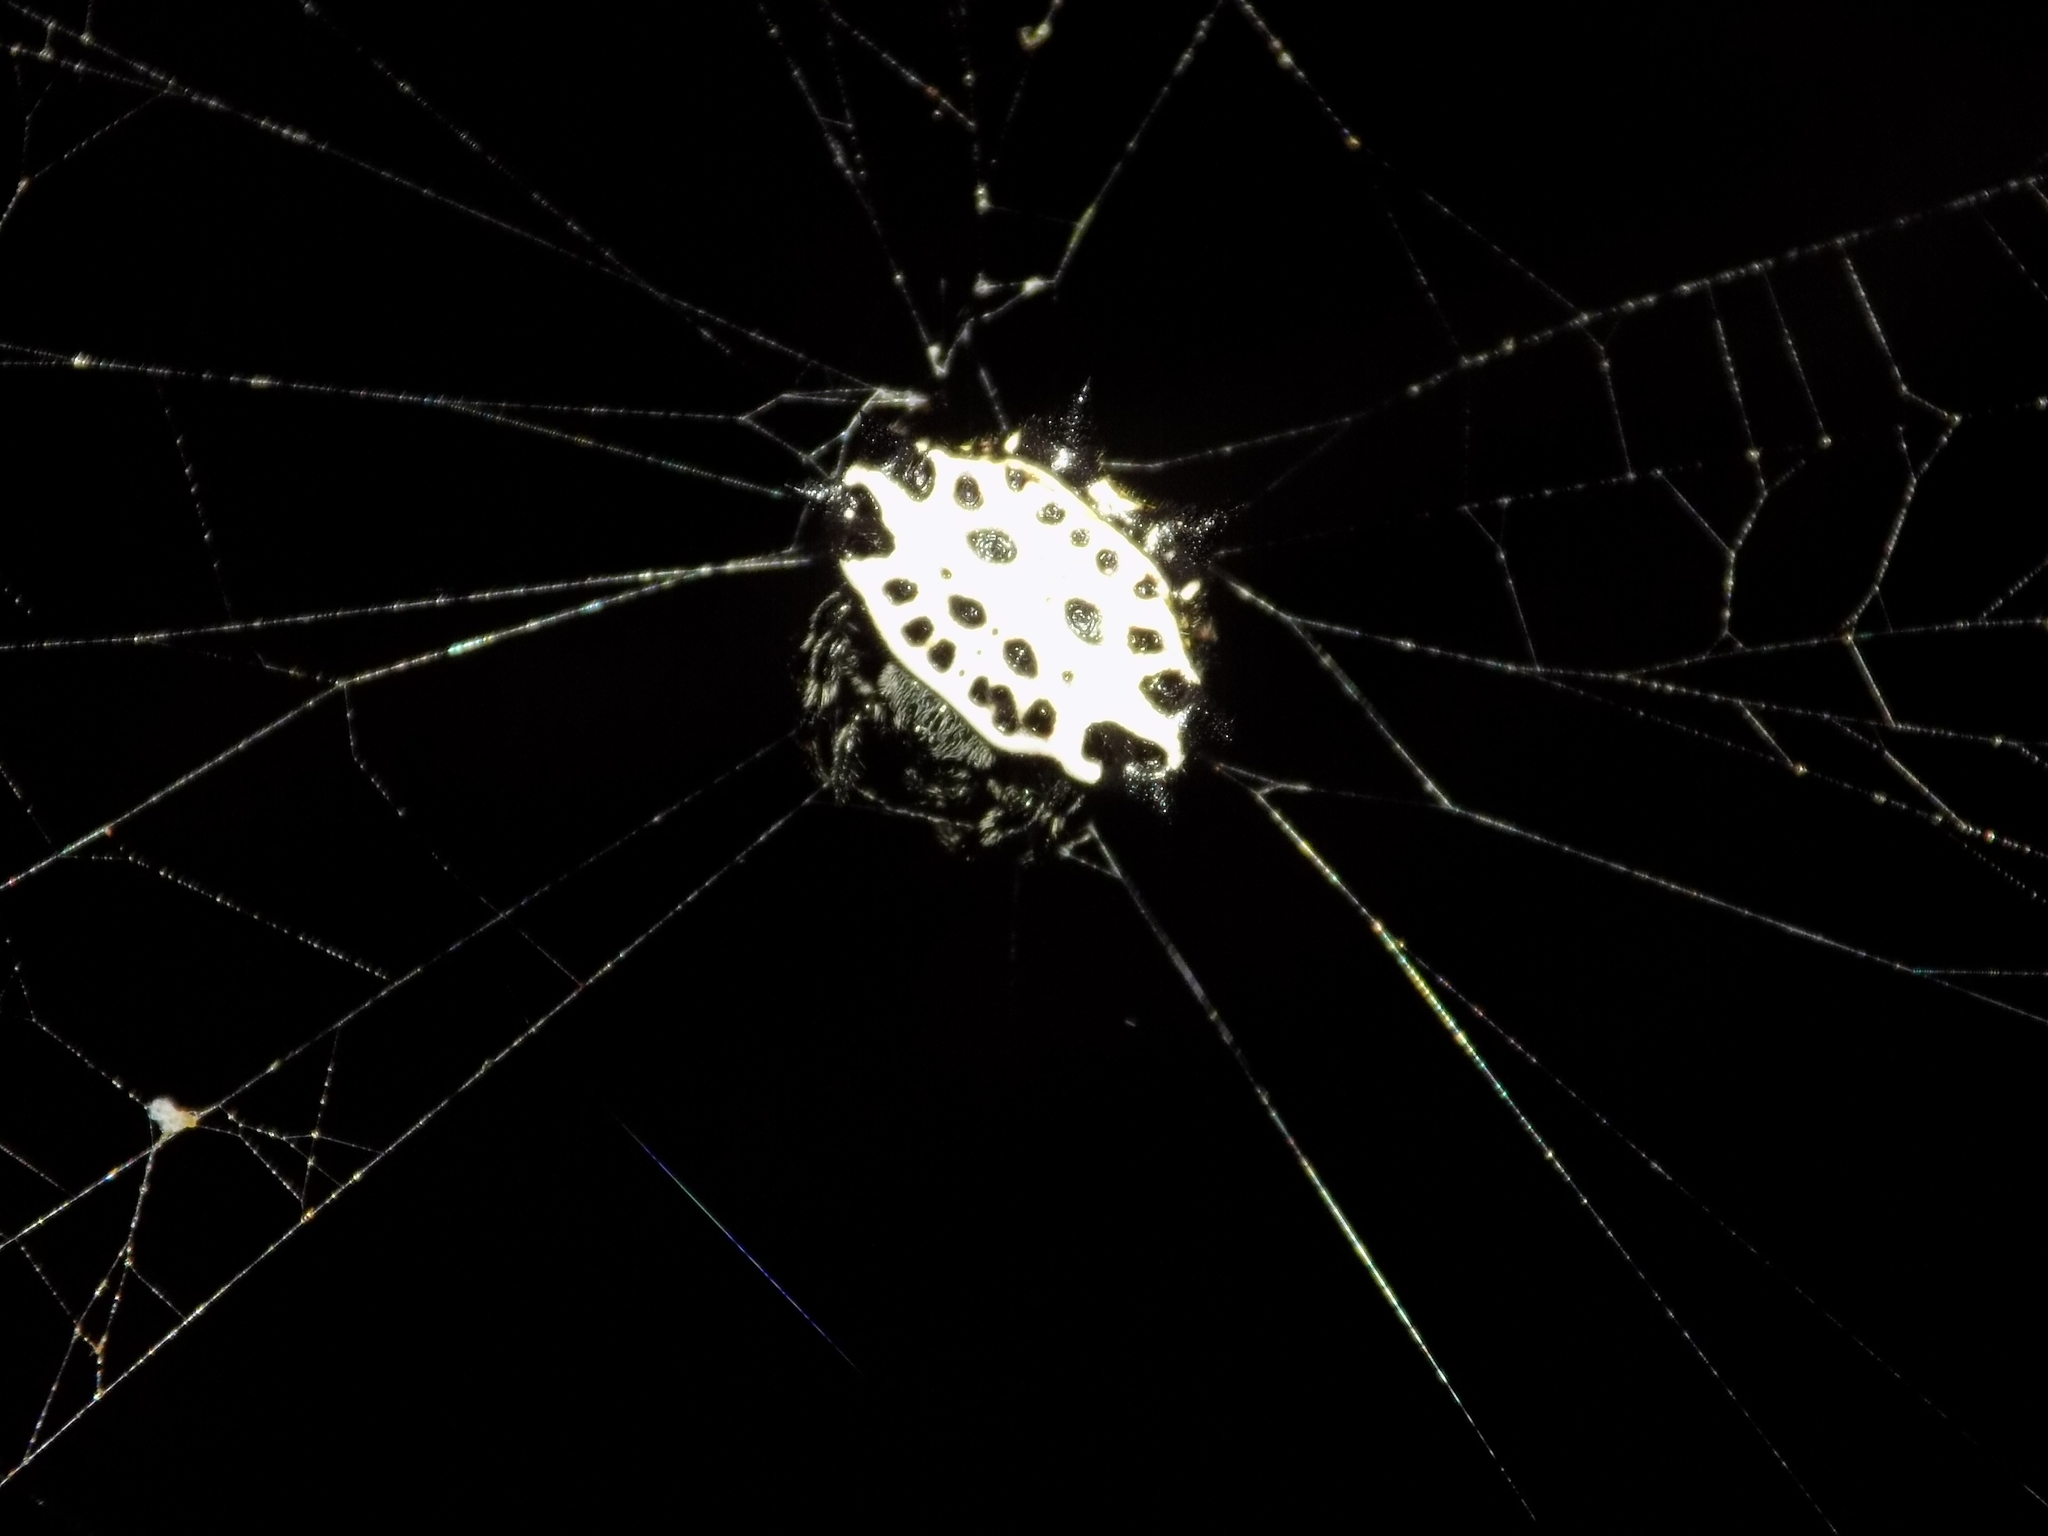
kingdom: Animalia
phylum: Arthropoda
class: Arachnida
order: Araneae
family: Araneidae
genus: Gasteracantha
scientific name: Gasteracantha cancriformis
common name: Orb weavers
